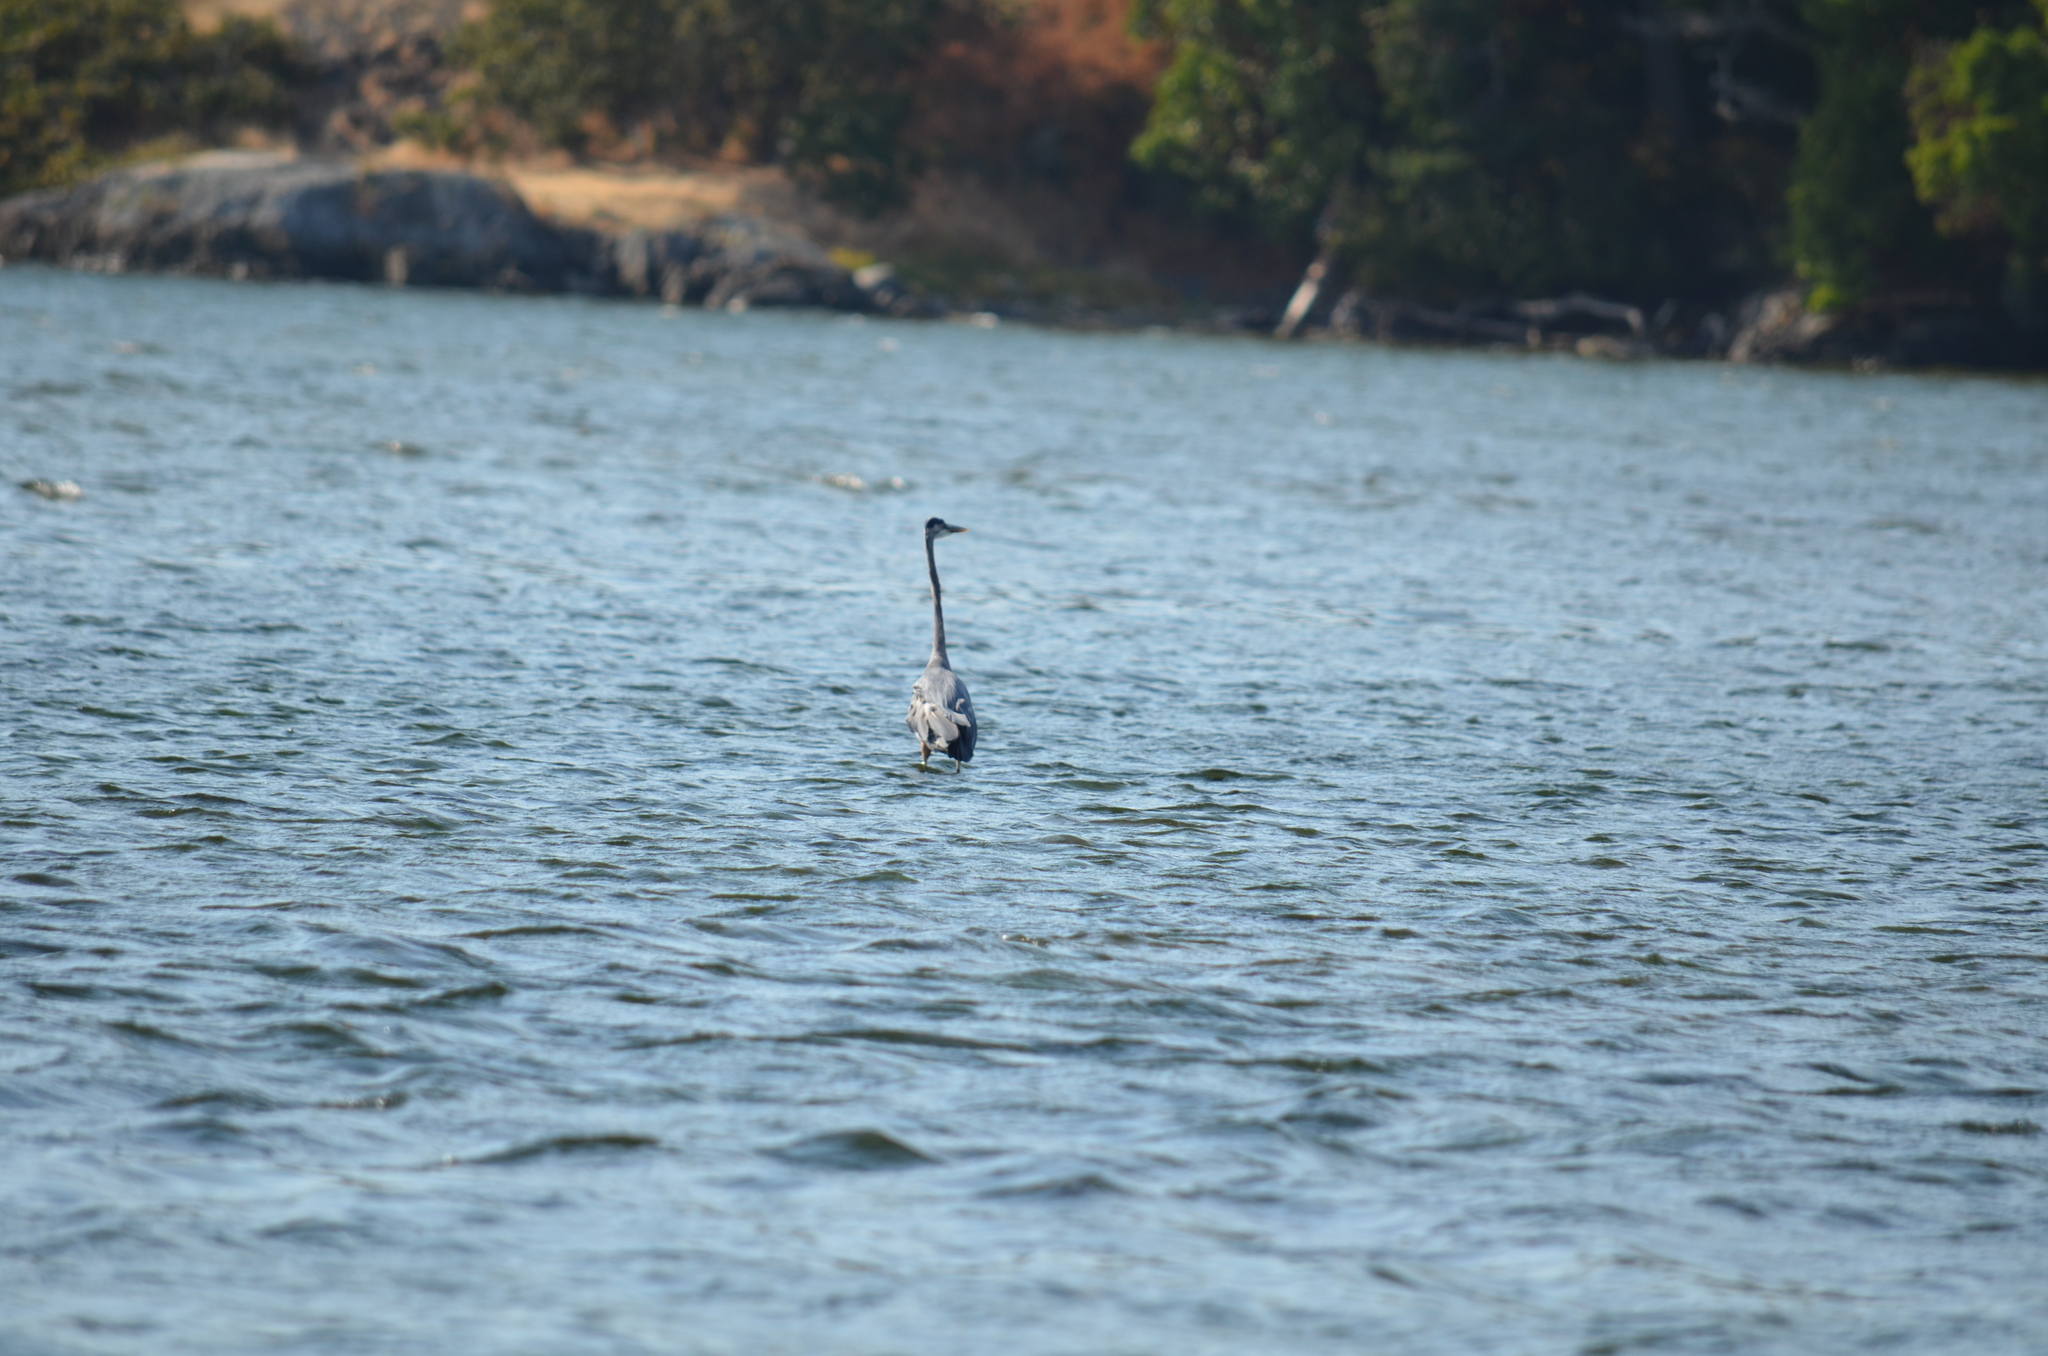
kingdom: Animalia
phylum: Chordata
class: Aves
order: Pelecaniformes
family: Ardeidae
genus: Ardea
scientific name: Ardea herodias
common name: Great blue heron
